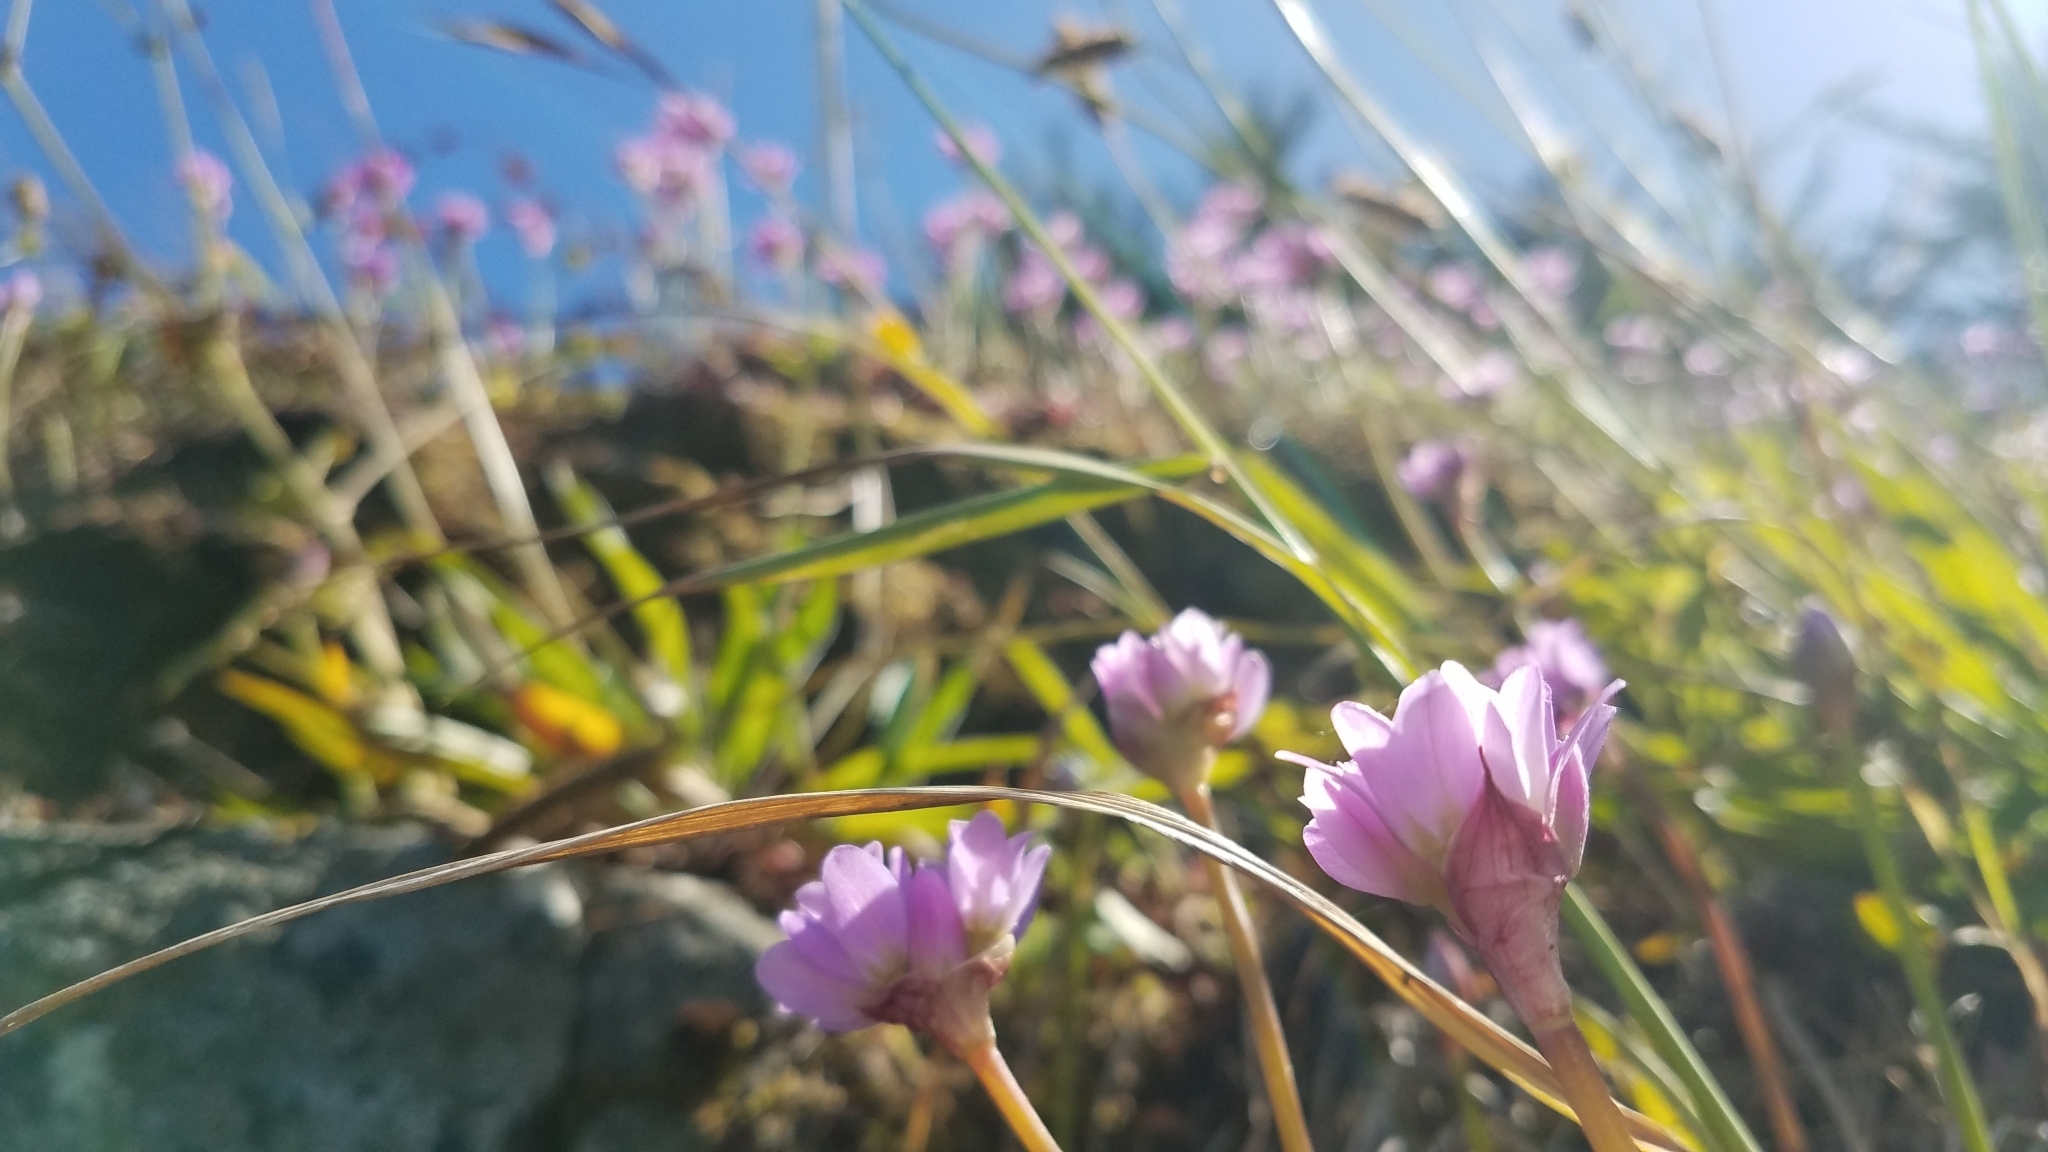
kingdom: Plantae
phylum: Tracheophyta
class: Liliopsida
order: Asparagales
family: Amaryllidaceae
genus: Allium
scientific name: Allium dichlamydeum
